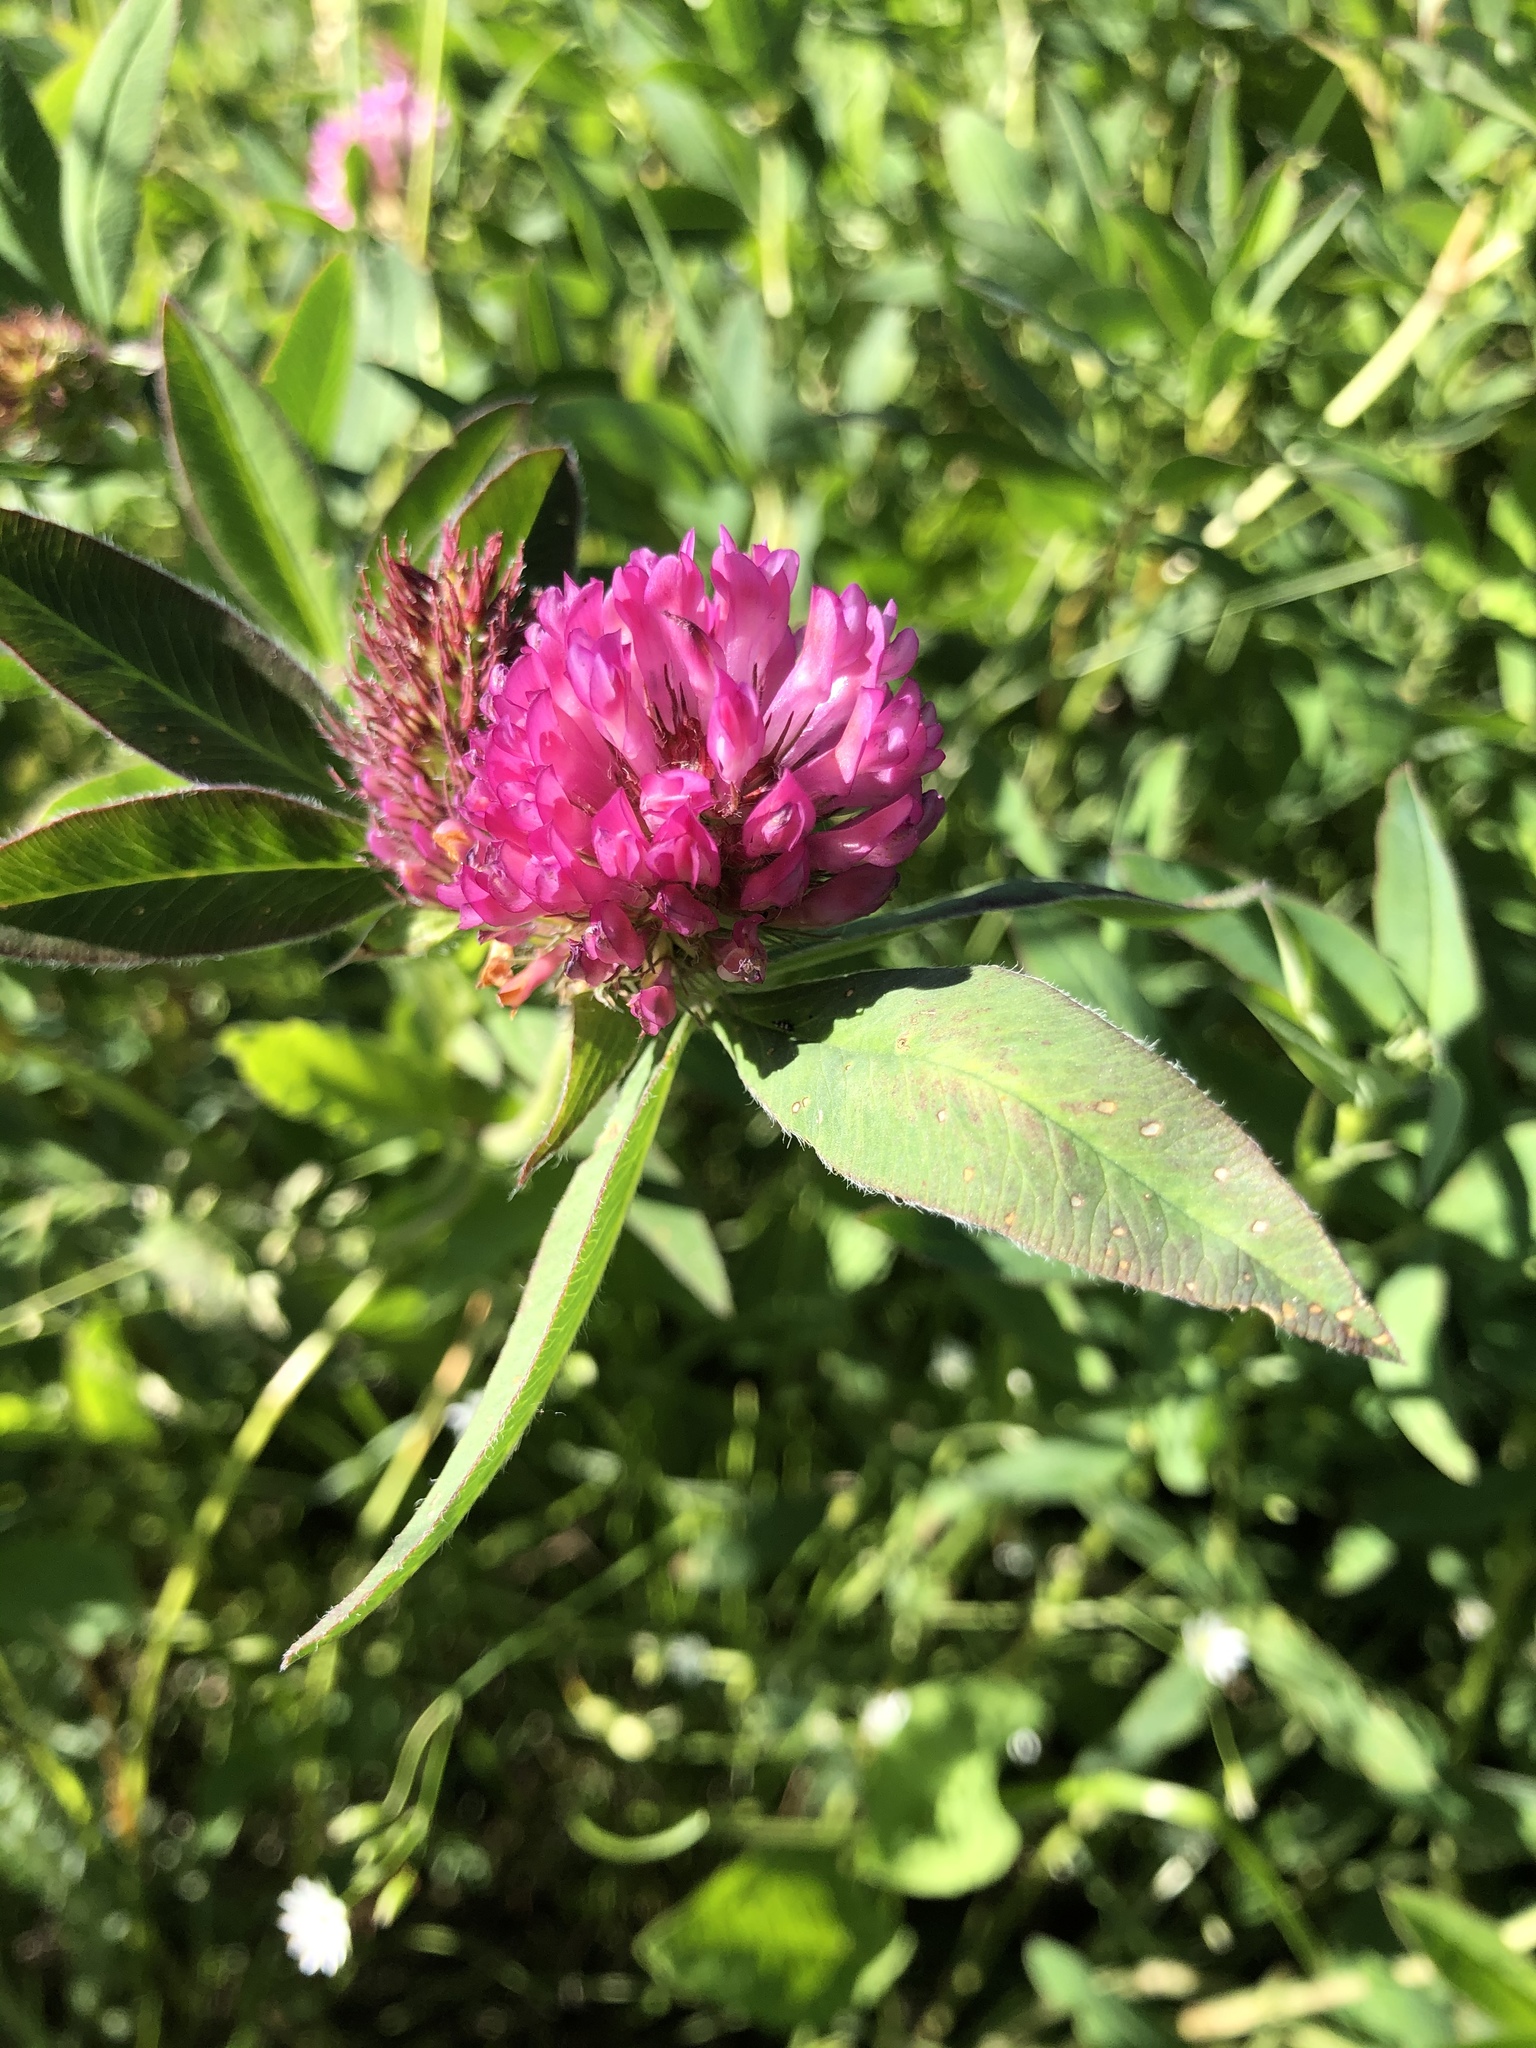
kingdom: Plantae
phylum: Tracheophyta
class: Magnoliopsida
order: Fabales
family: Fabaceae
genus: Trifolium
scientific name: Trifolium medium
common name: Zigzag clover
